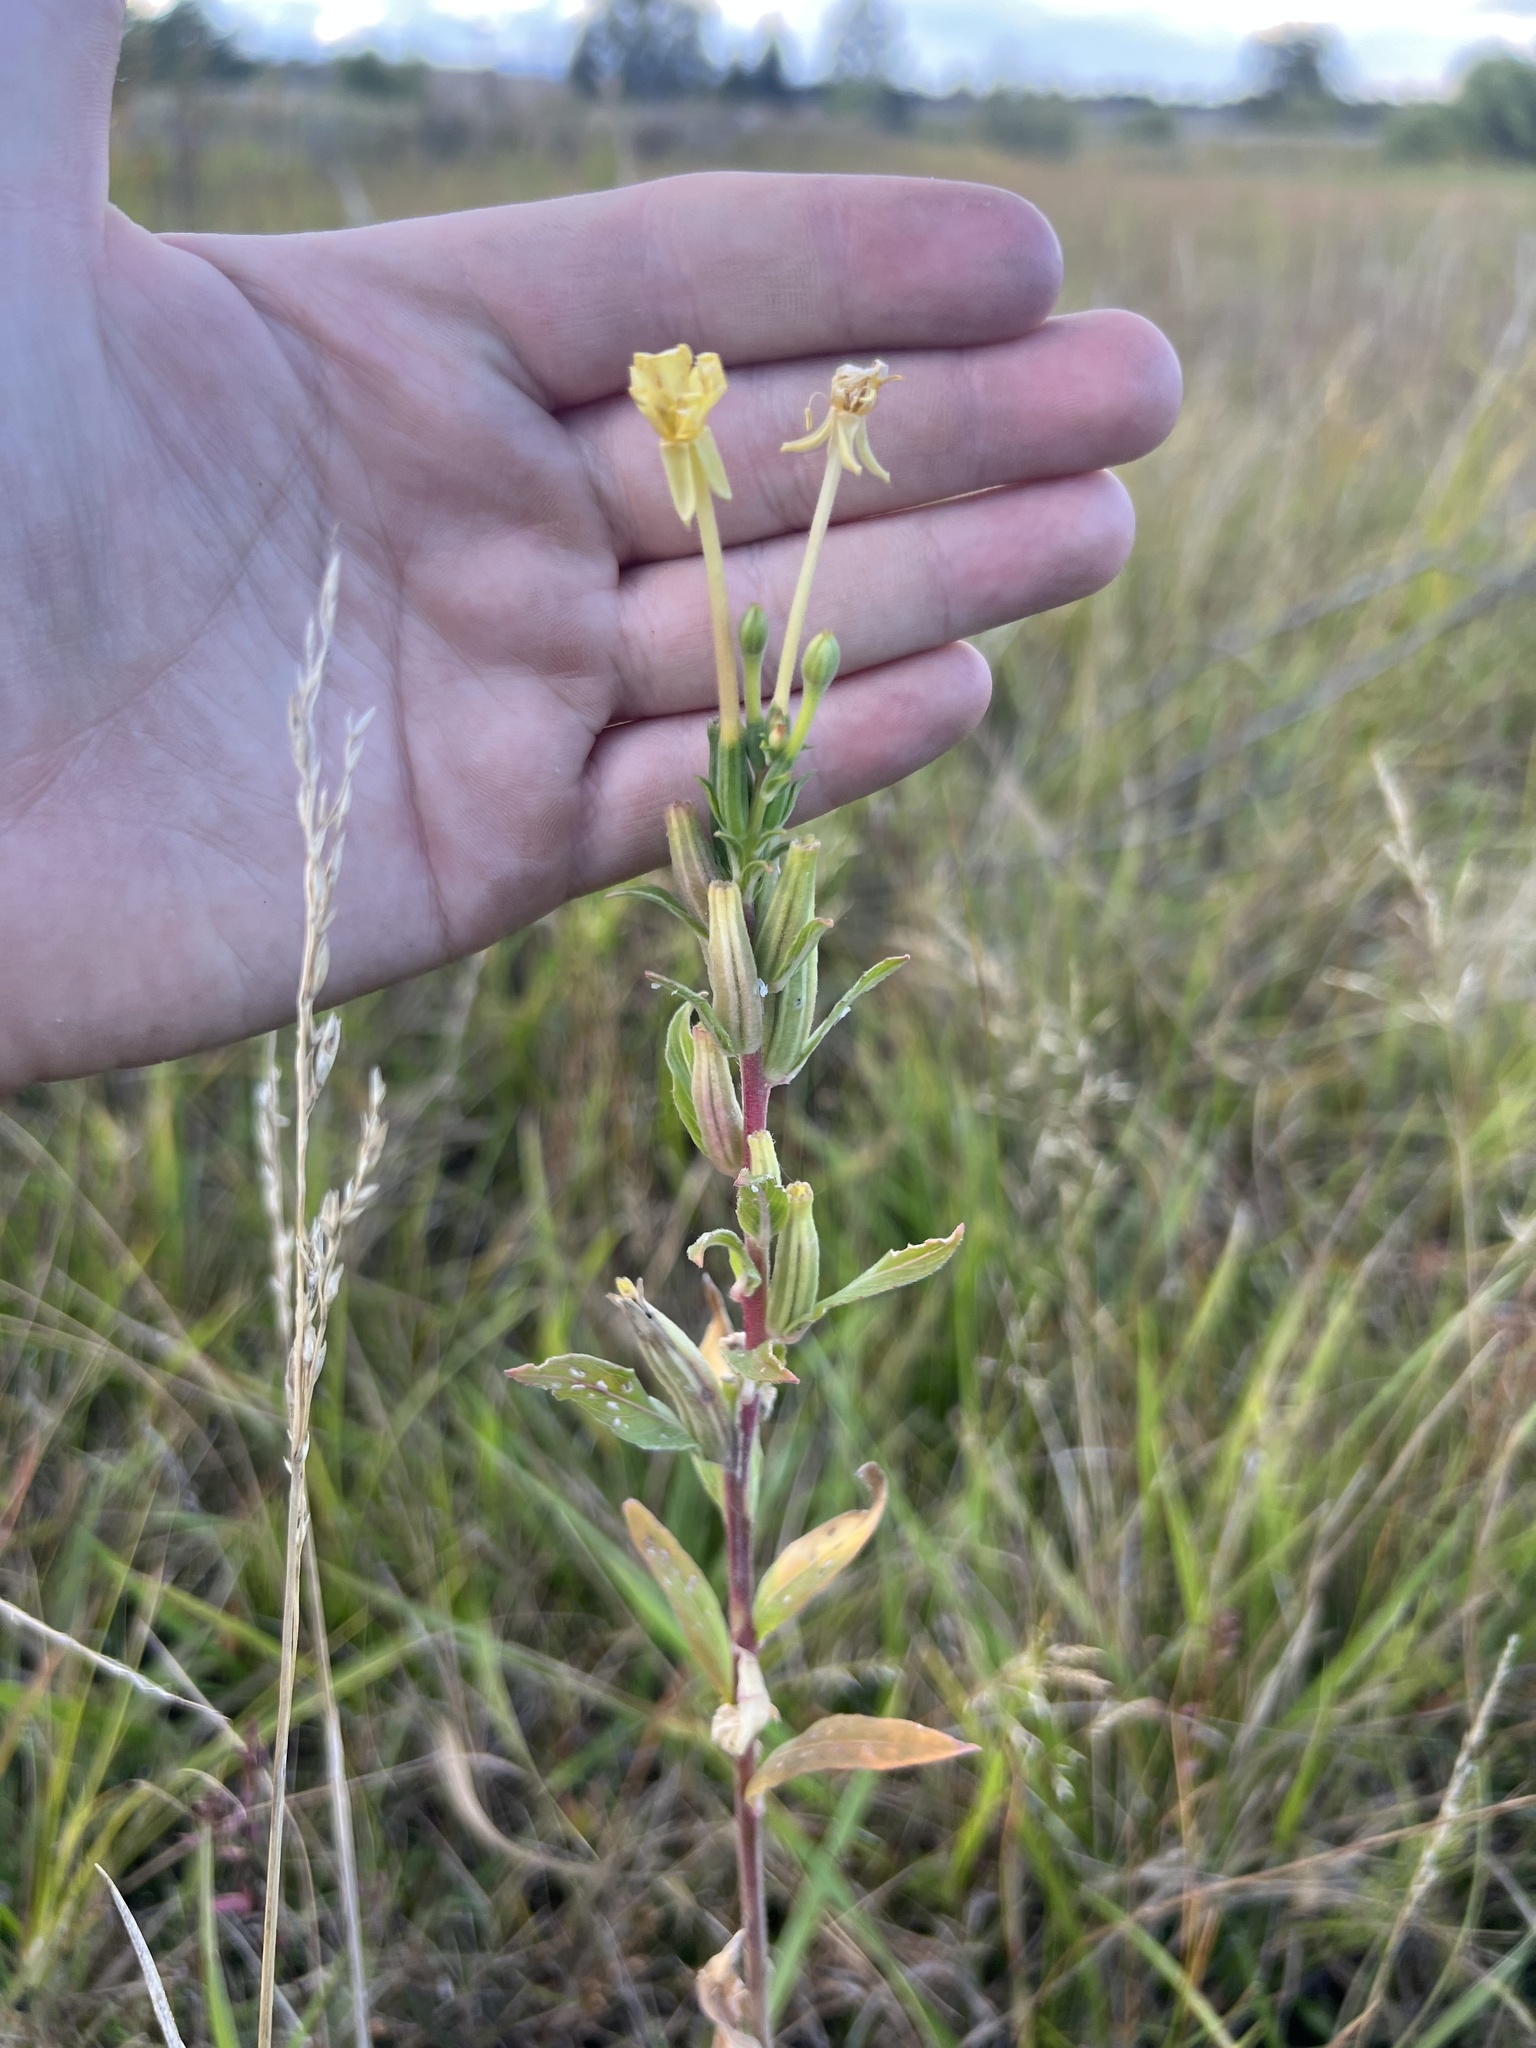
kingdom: Plantae
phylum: Tracheophyta
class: Magnoliopsida
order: Myrtales
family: Onagraceae
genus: Oenothera
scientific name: Oenothera villosa
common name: Hairy evening-primrose
